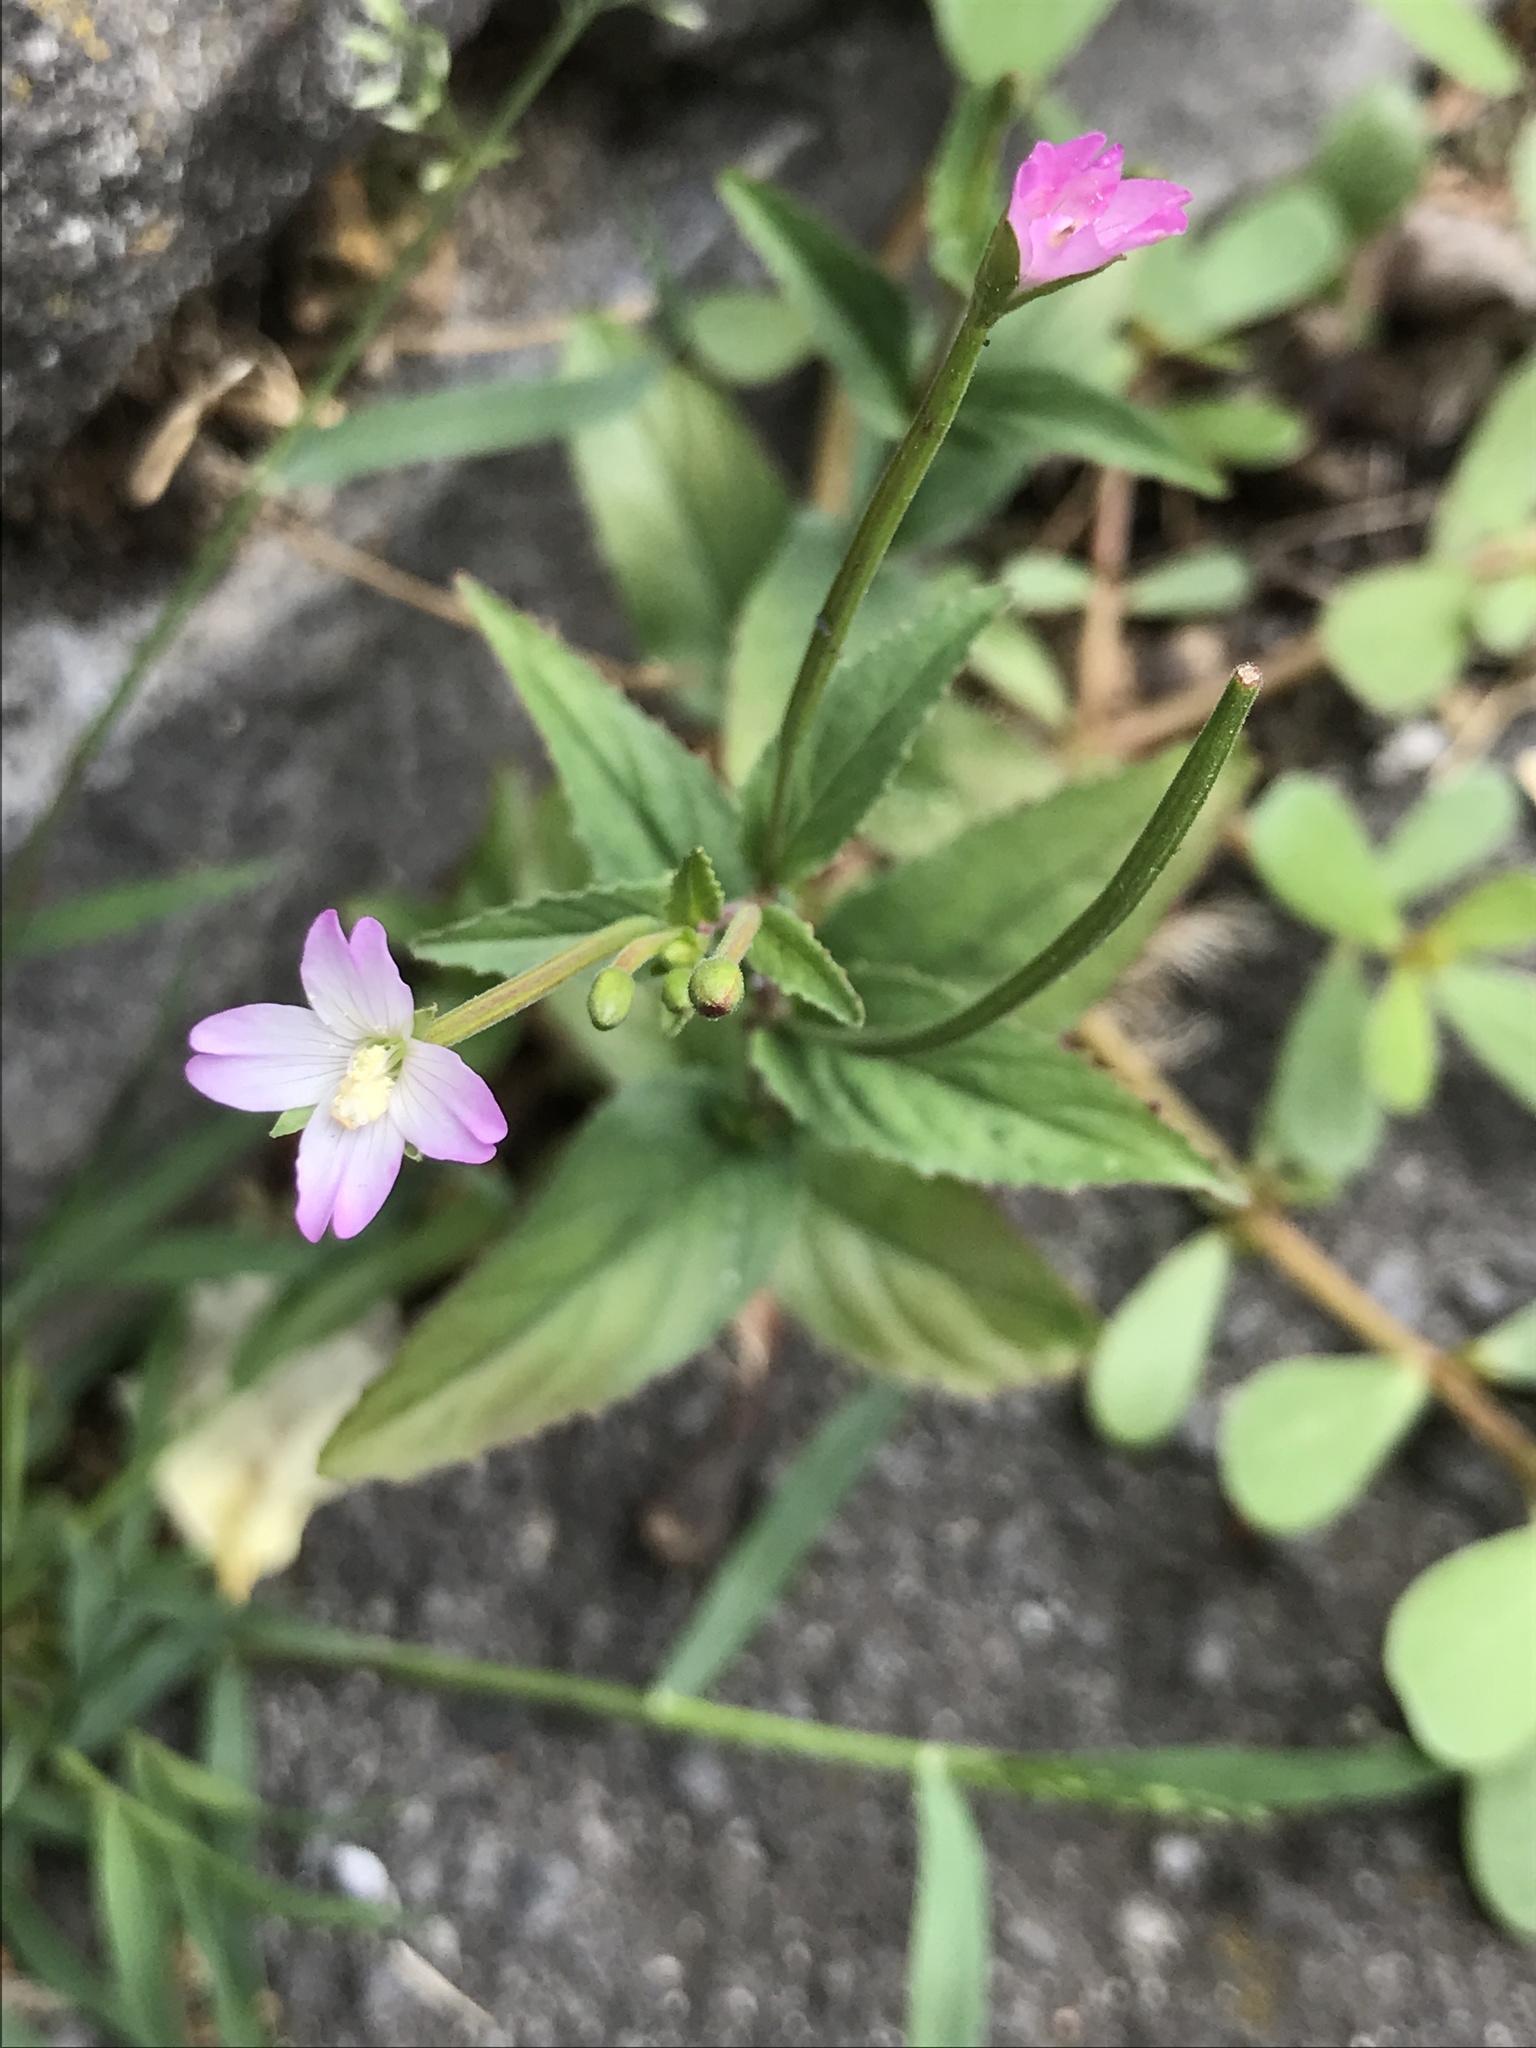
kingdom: Plantae
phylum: Tracheophyta
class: Magnoliopsida
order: Myrtales
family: Onagraceae
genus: Epilobium
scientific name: Epilobium montanum
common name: Broad-leaved willowherb
